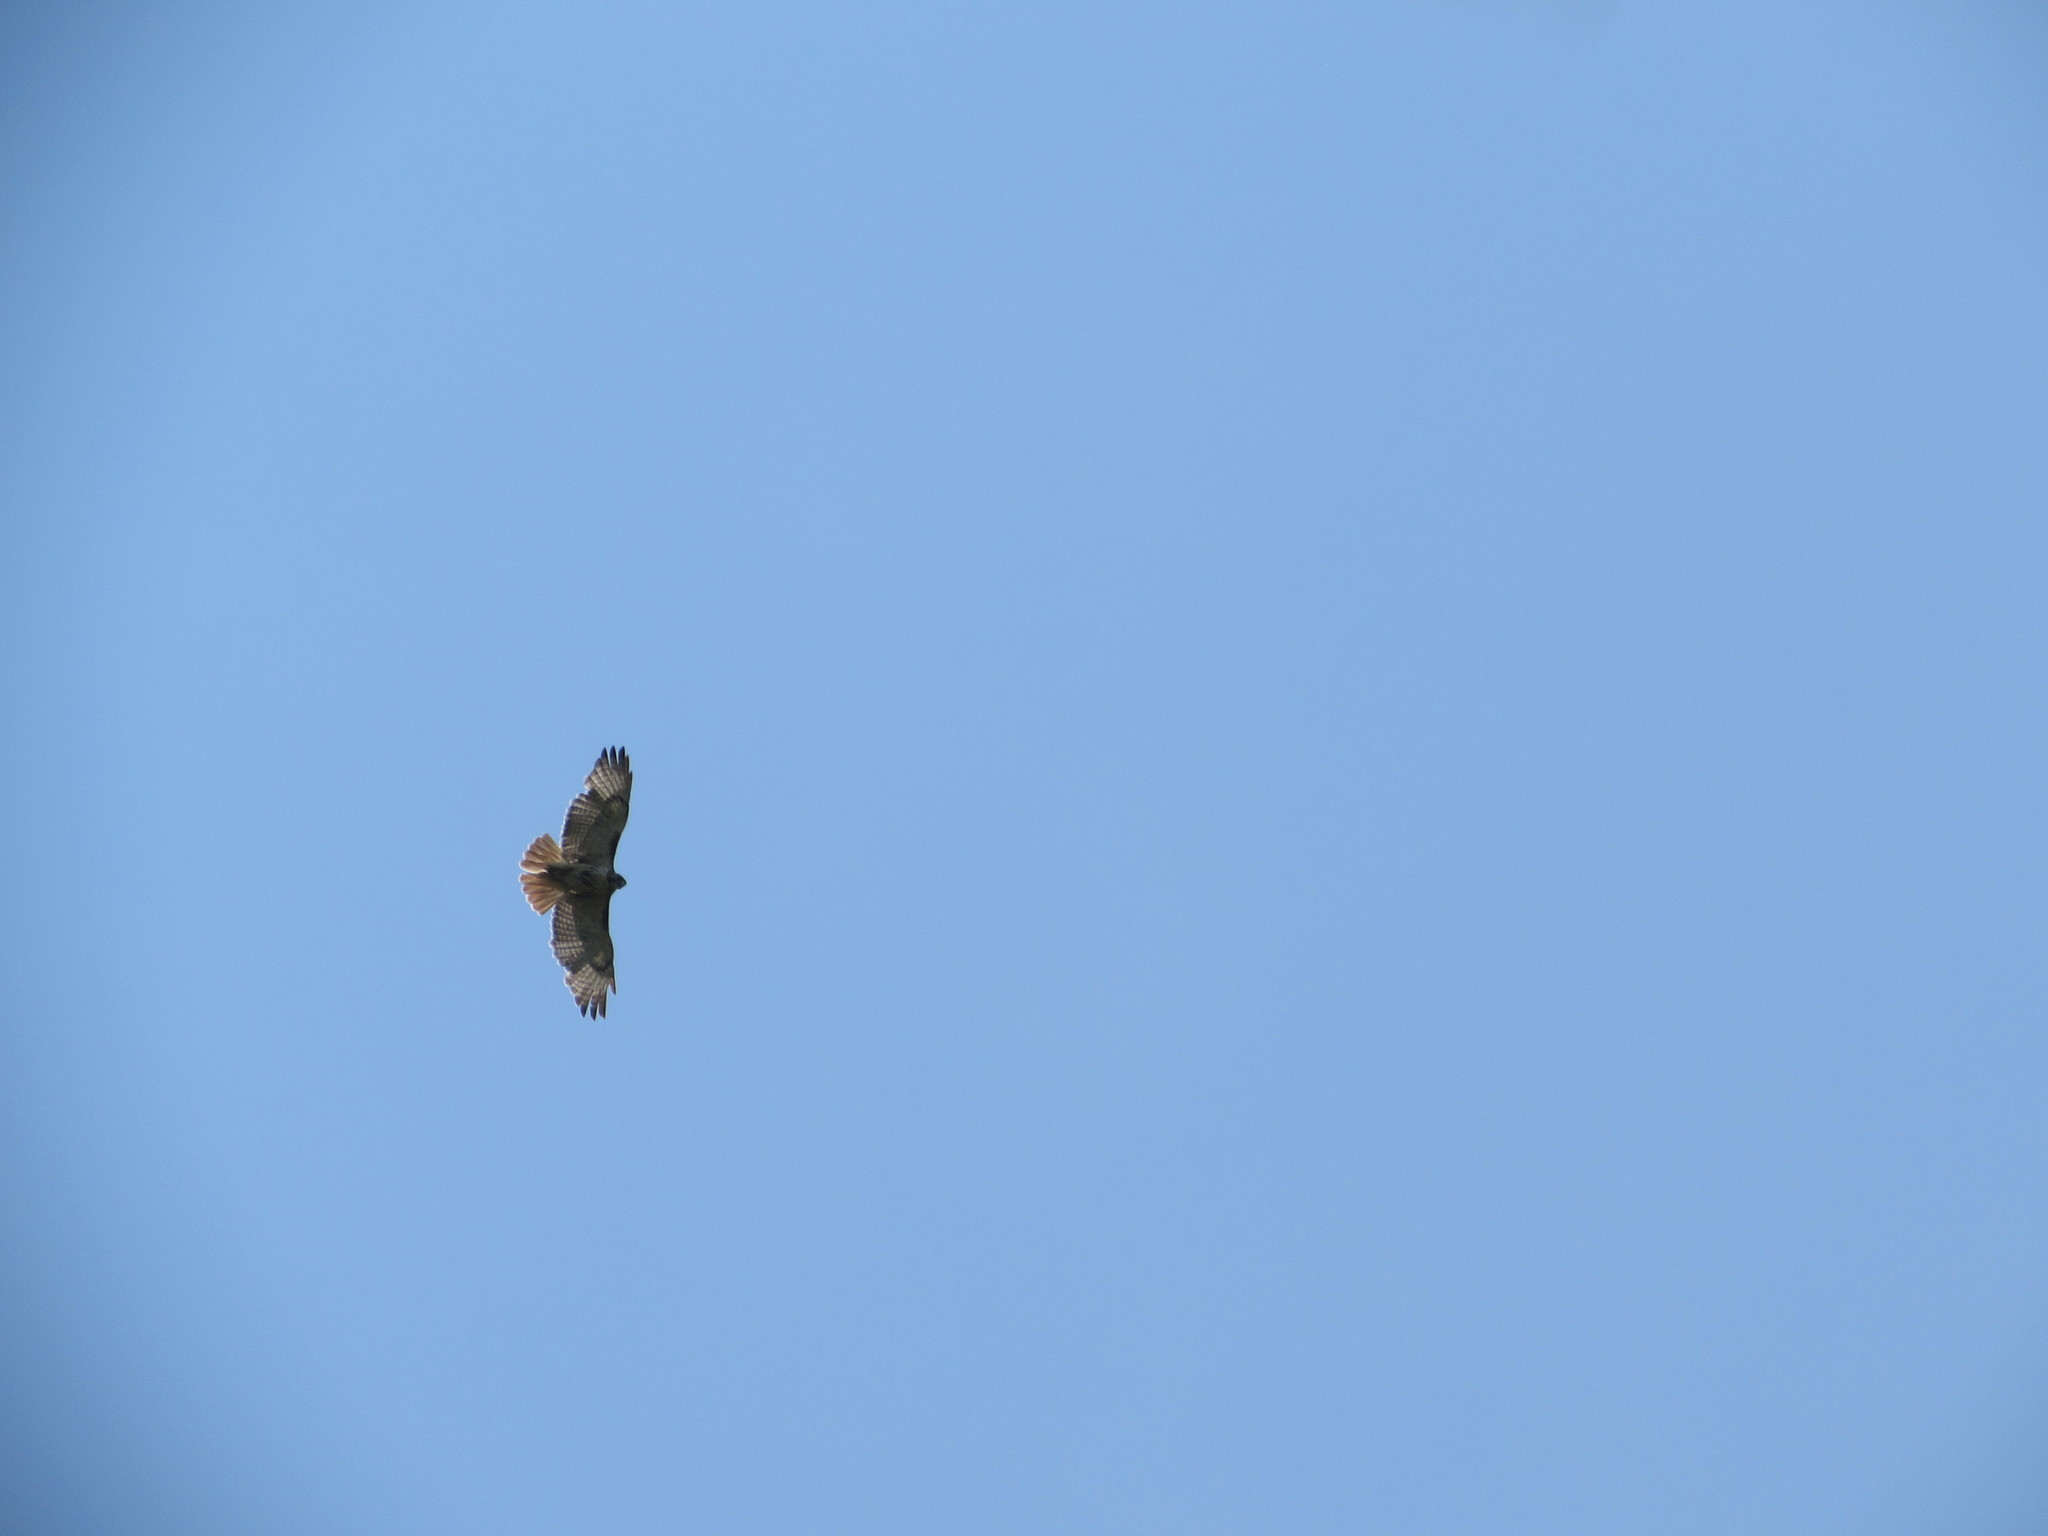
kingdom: Animalia
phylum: Chordata
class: Aves
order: Accipitriformes
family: Accipitridae
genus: Buteo
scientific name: Buteo jamaicensis
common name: Red-tailed hawk
